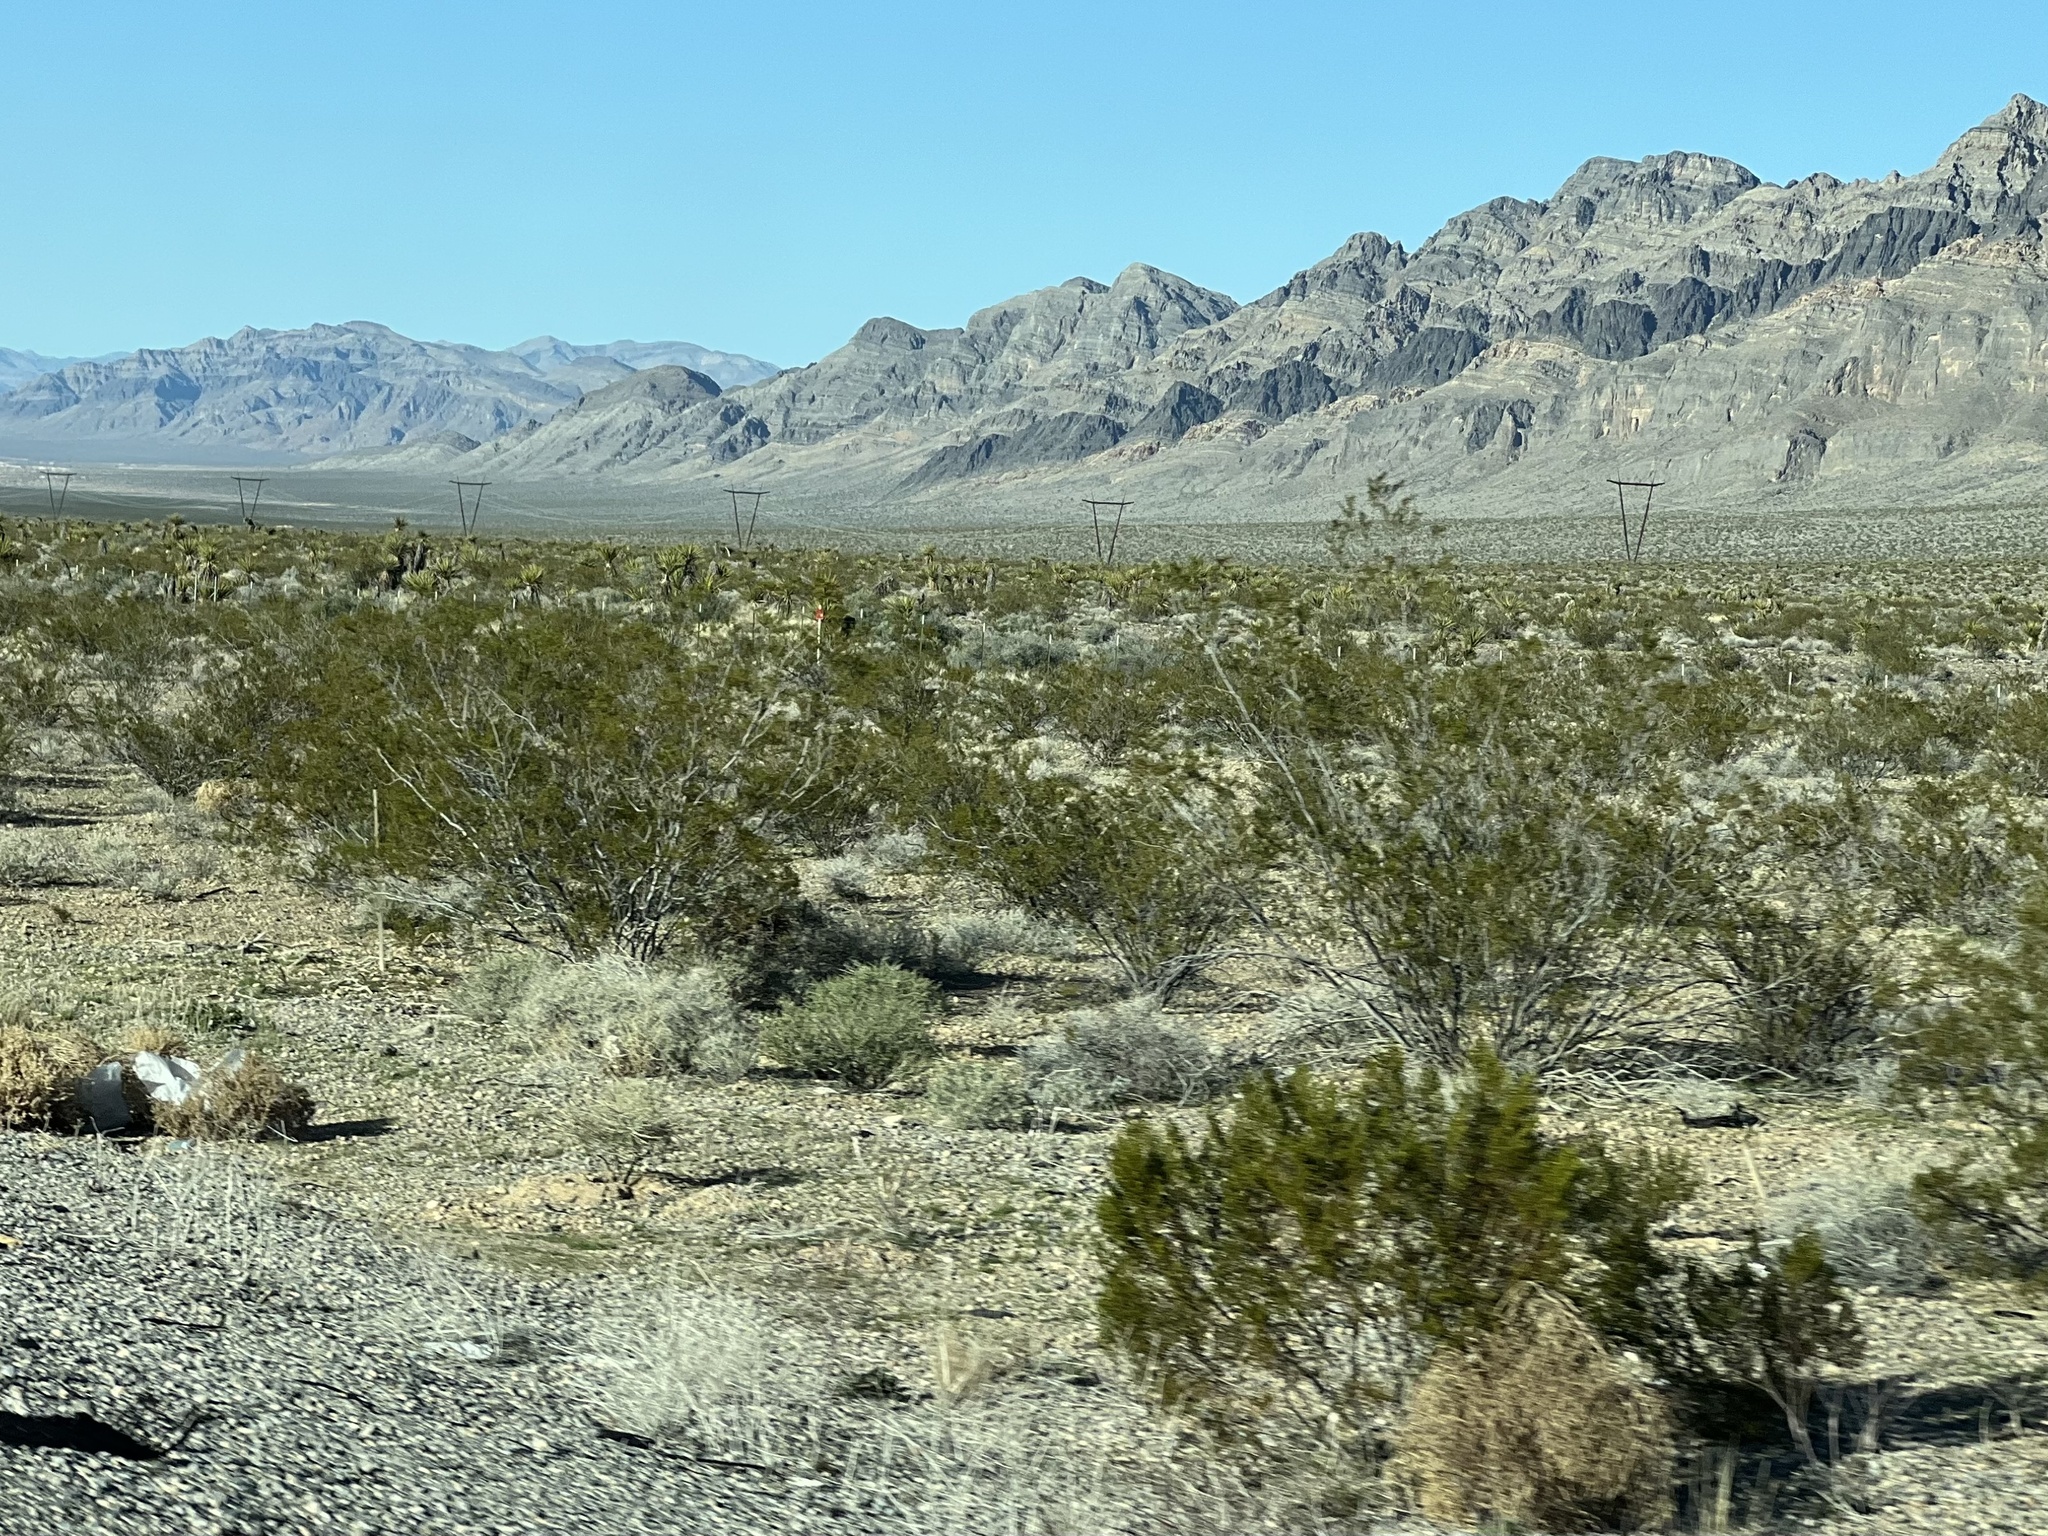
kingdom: Plantae
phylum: Tracheophyta
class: Magnoliopsida
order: Zygophyllales
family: Zygophyllaceae
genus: Larrea
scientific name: Larrea tridentata
